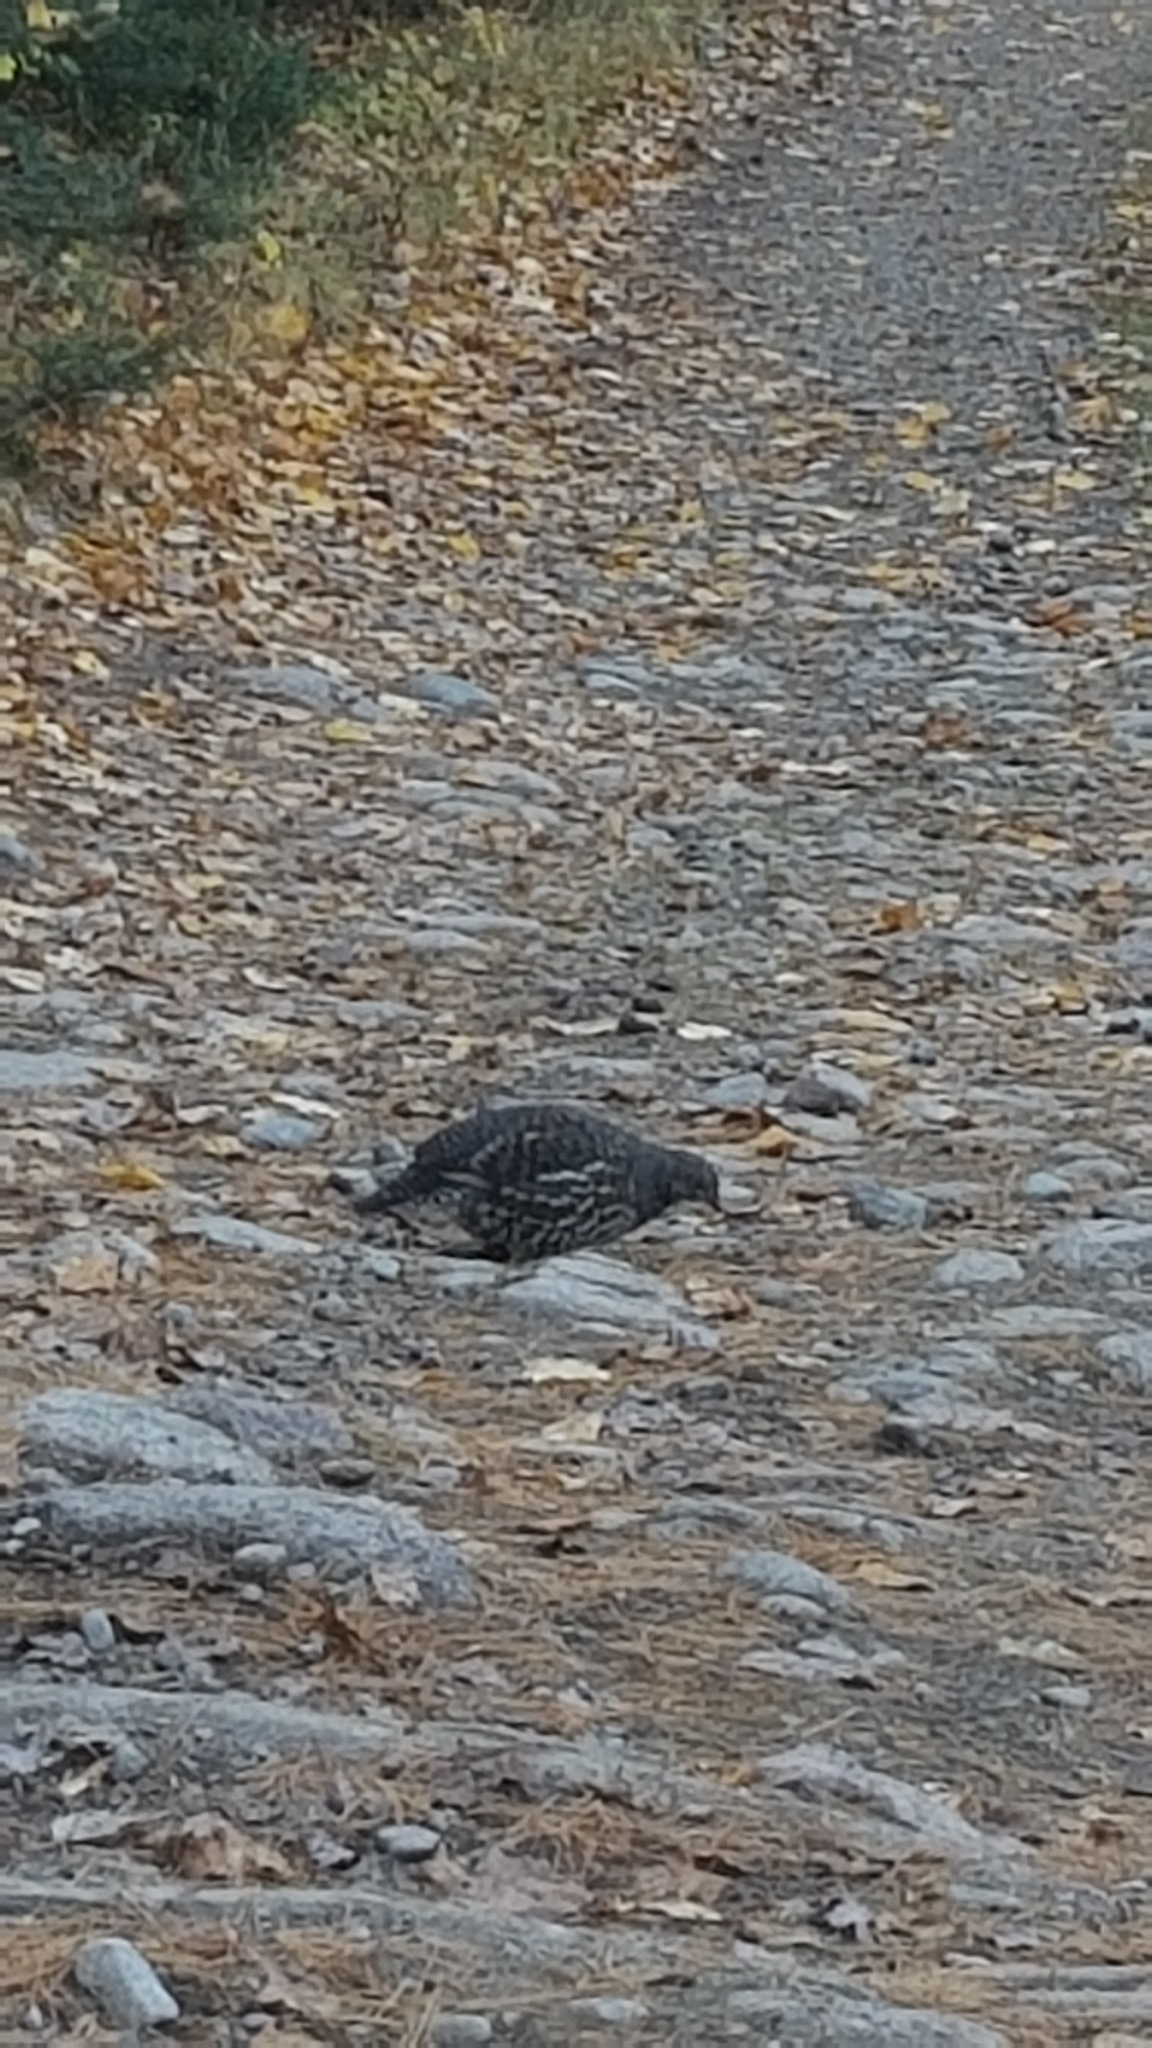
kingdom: Animalia
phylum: Chordata
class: Aves
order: Galliformes
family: Phasianidae
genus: Canachites
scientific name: Canachites canadensis
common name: Spruce grouse
